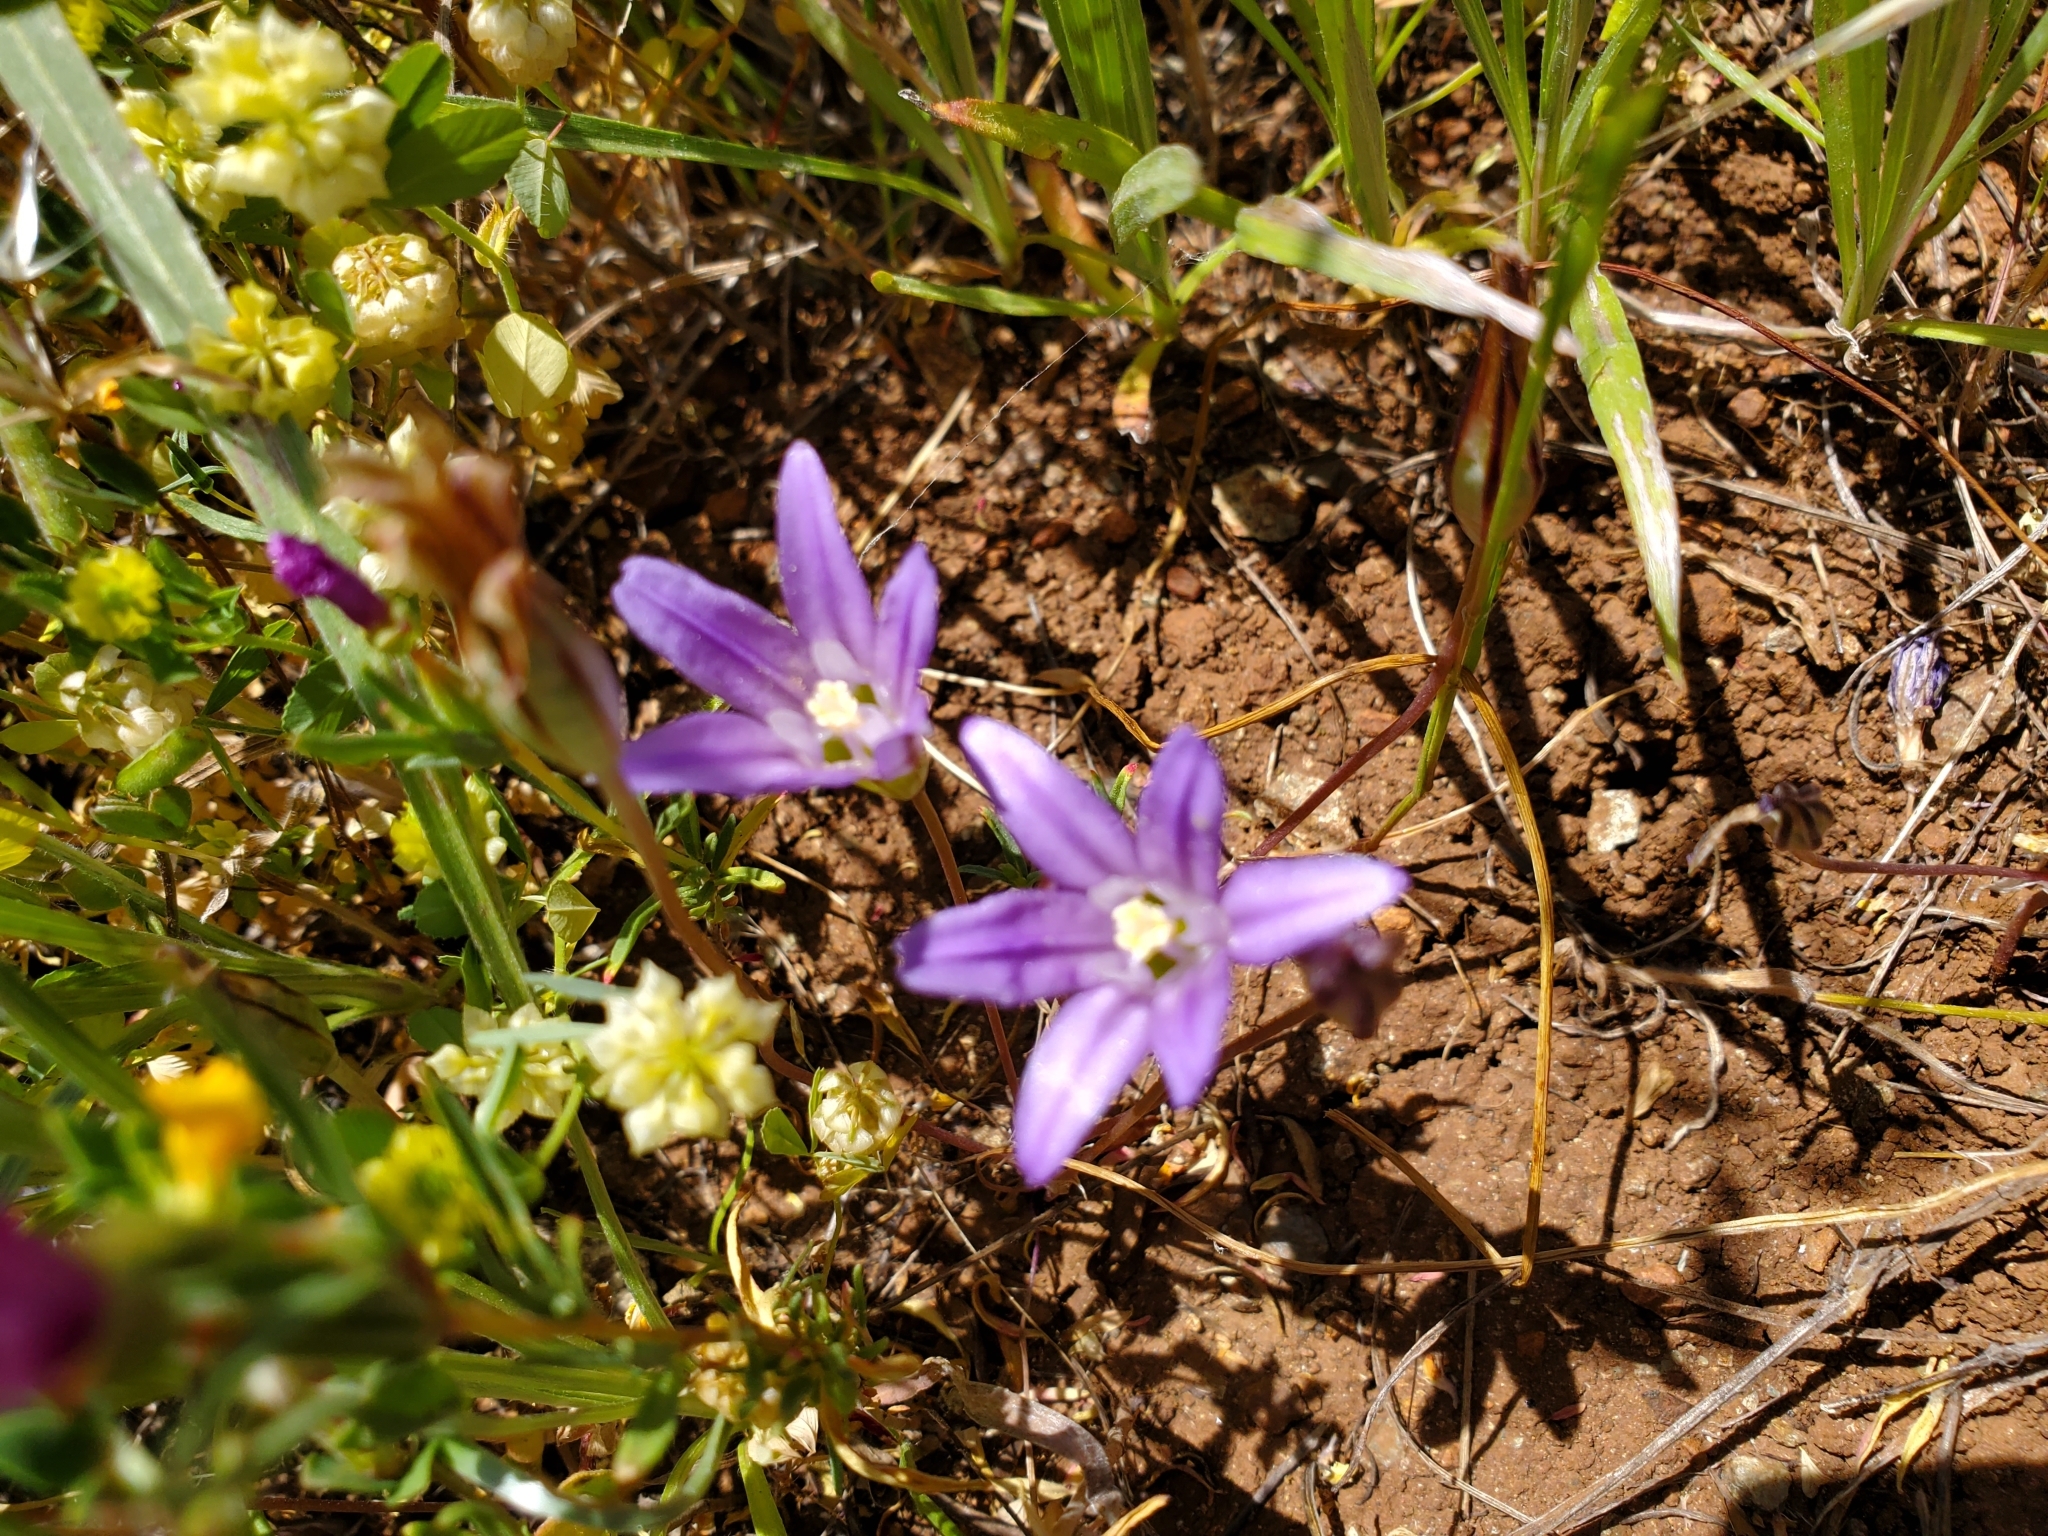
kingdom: Plantae
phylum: Tracheophyta
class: Liliopsida
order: Asparagales
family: Asparagaceae
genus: Brodiaea
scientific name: Brodiaea terrestris
